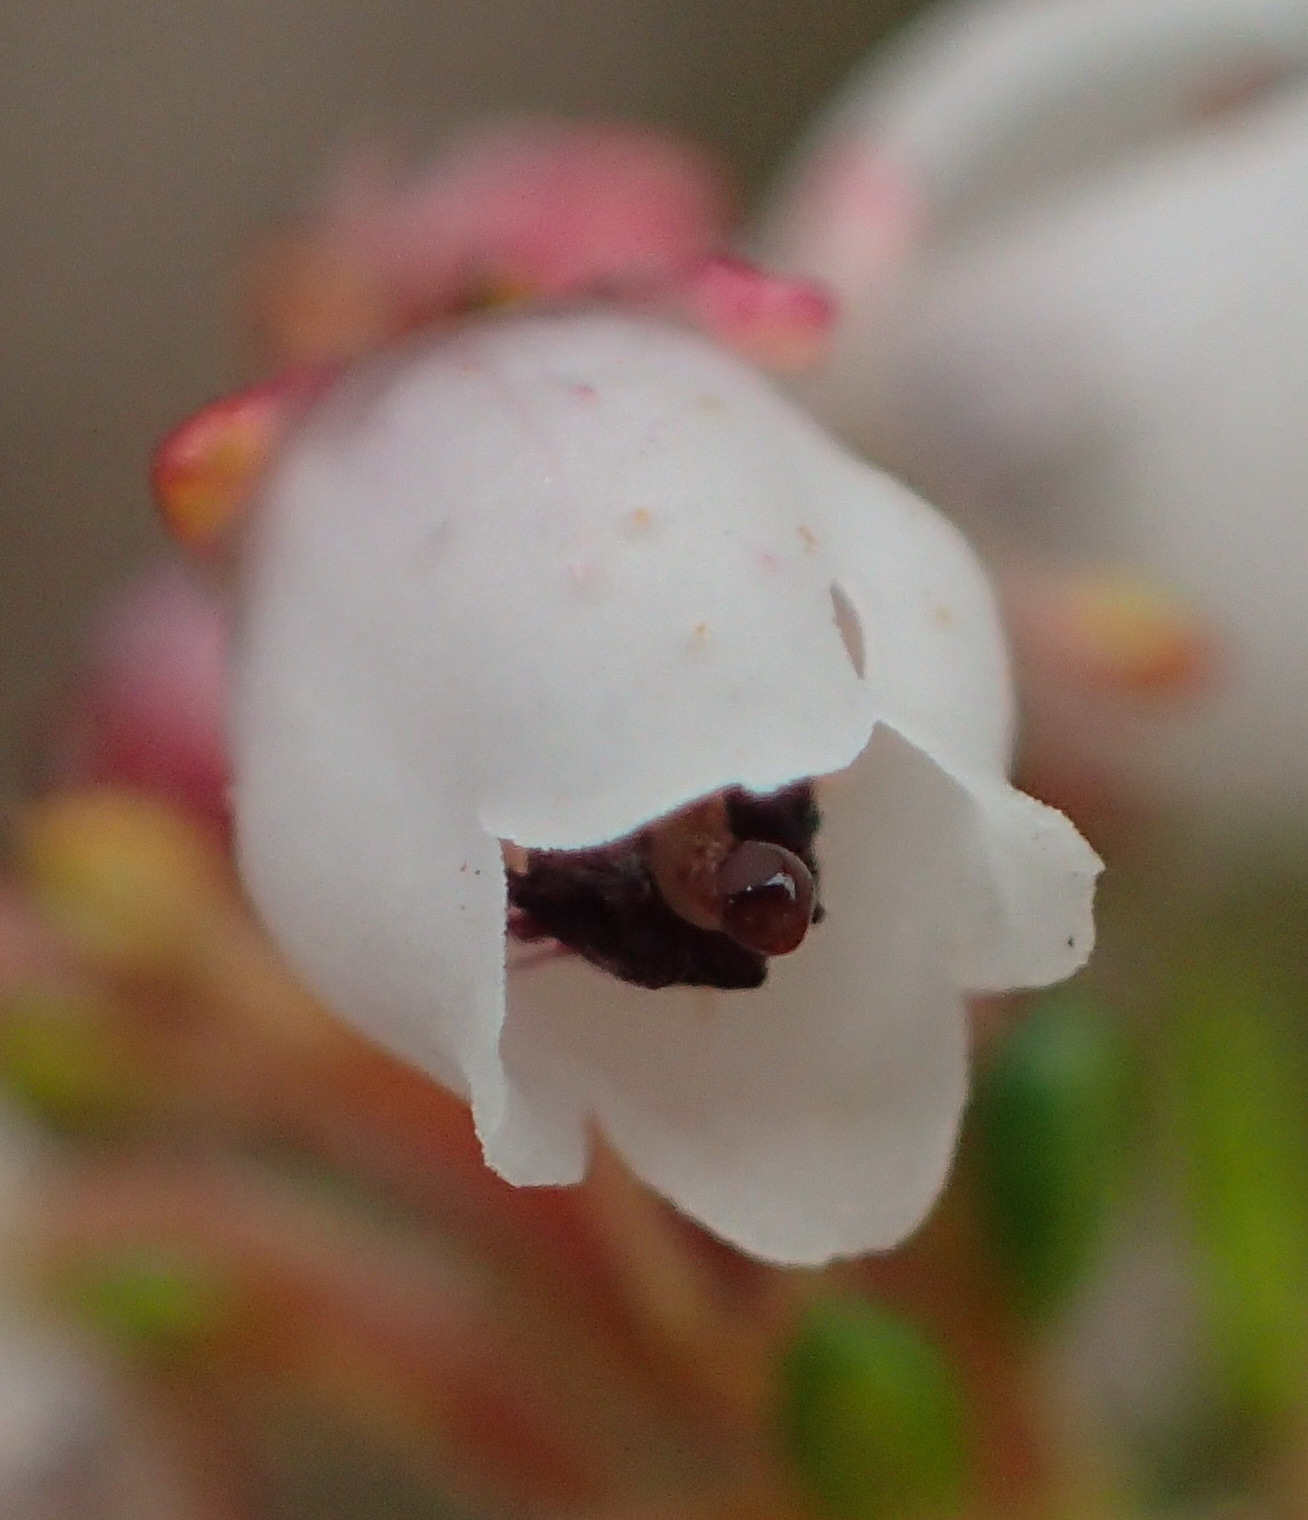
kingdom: Plantae
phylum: Tracheophyta
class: Magnoliopsida
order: Ericales
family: Ericaceae
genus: Erica
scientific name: Erica scabriuscula
